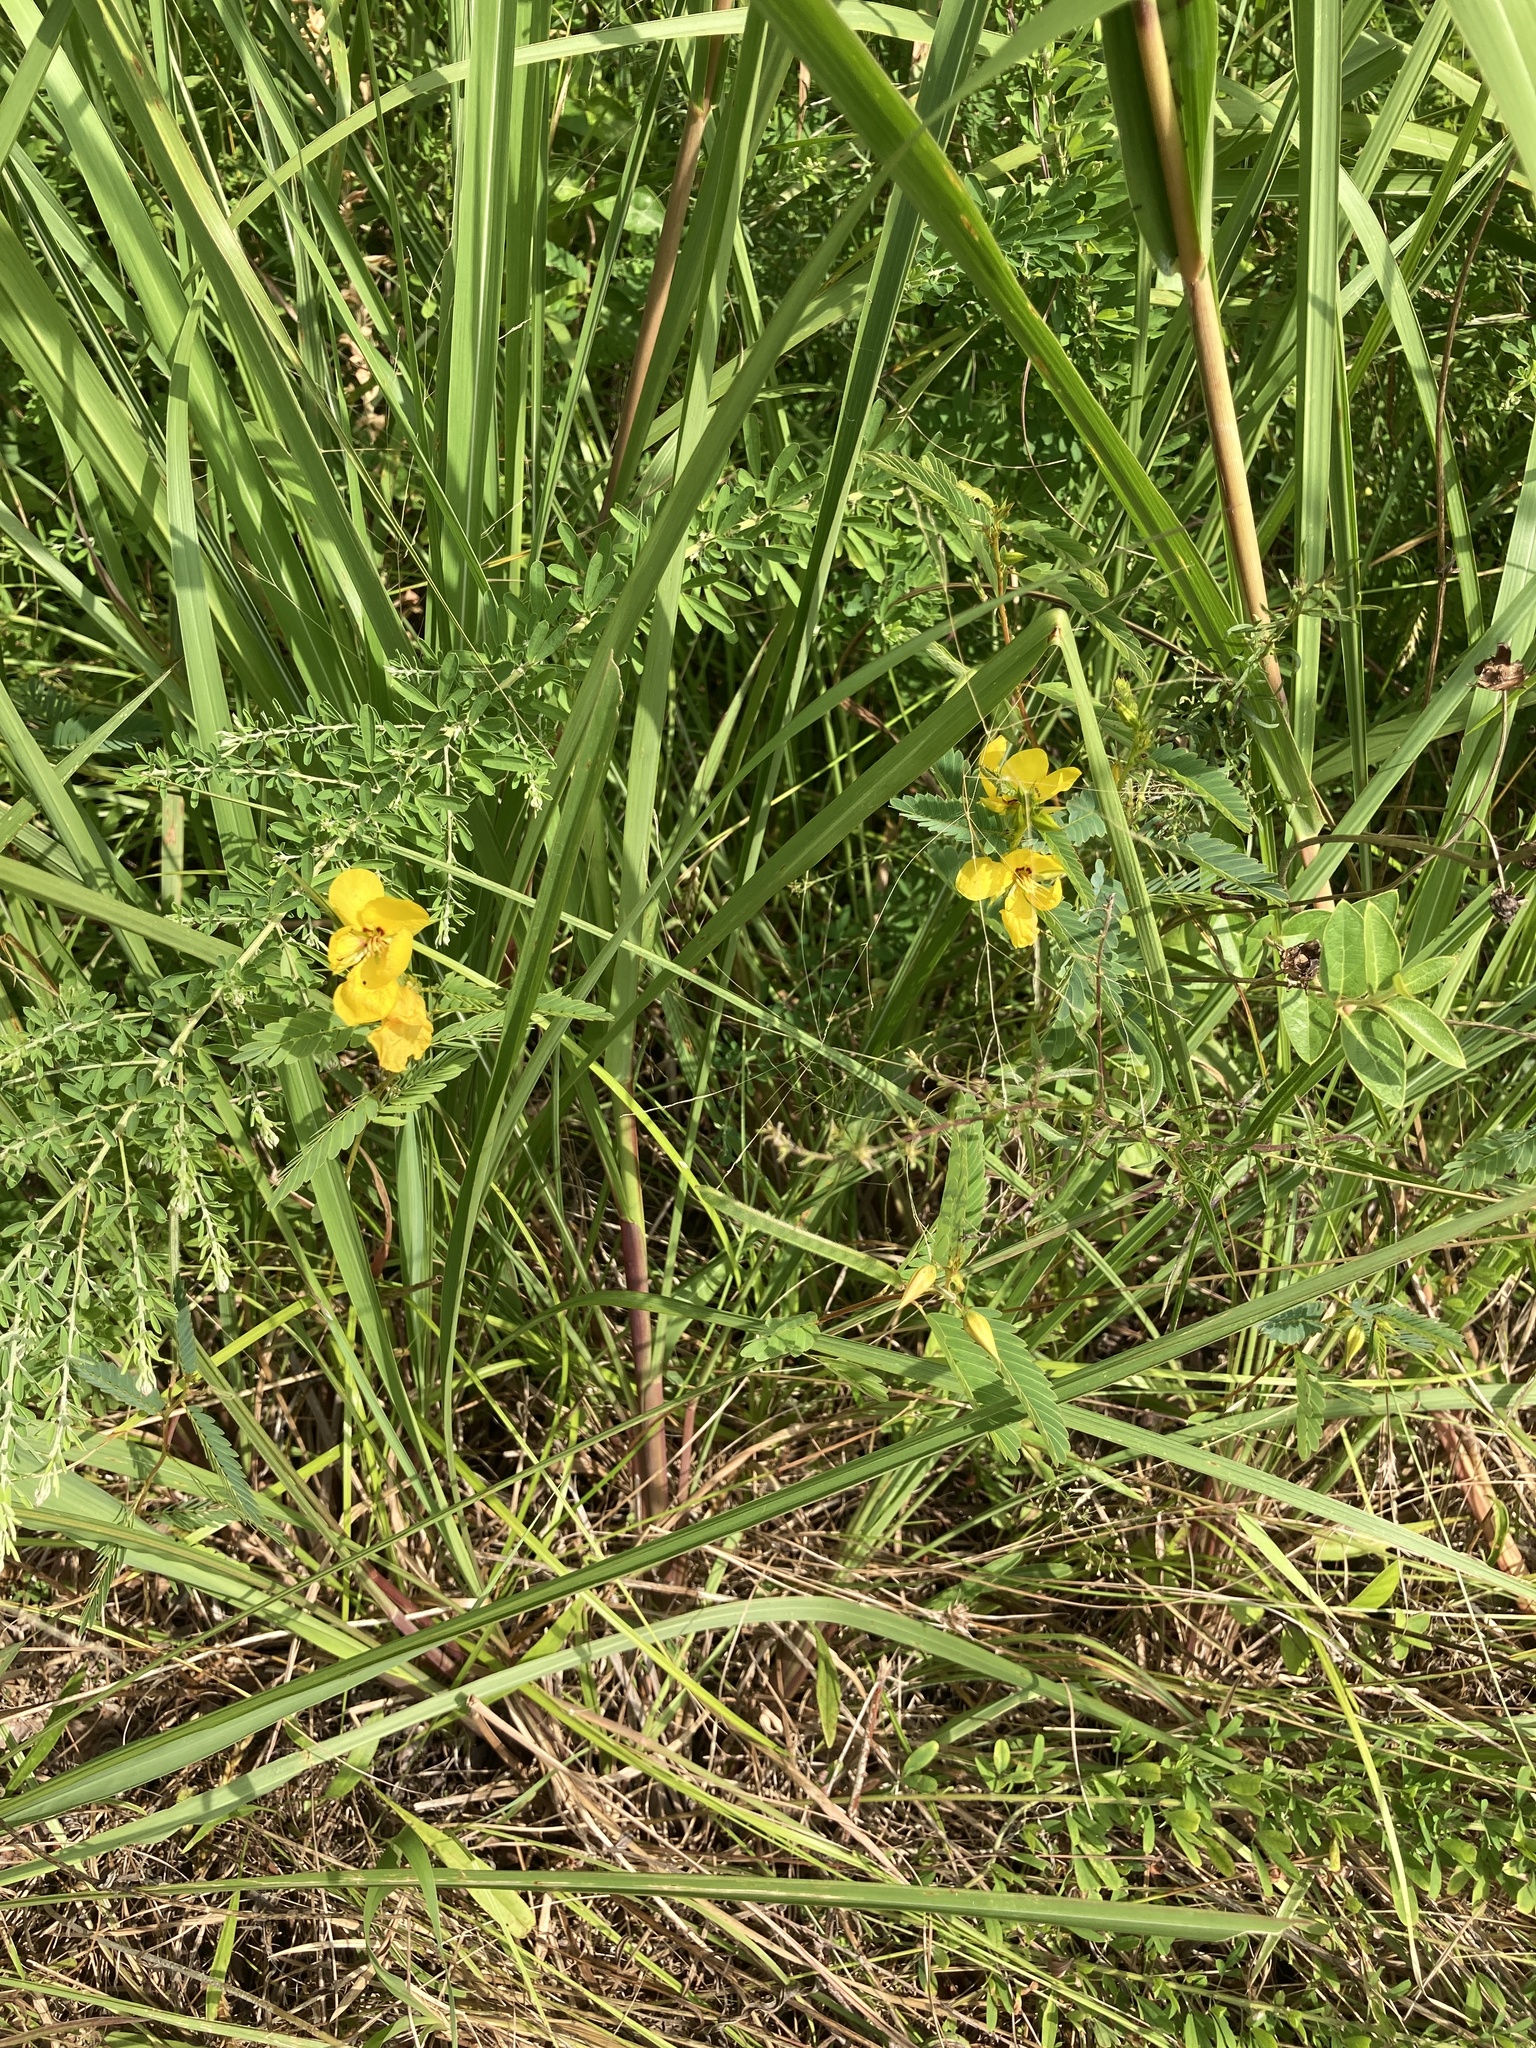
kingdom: Plantae
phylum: Tracheophyta
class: Magnoliopsida
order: Fabales
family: Fabaceae
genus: Chamaecrista
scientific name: Chamaecrista fasciculata
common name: Golden cassia
